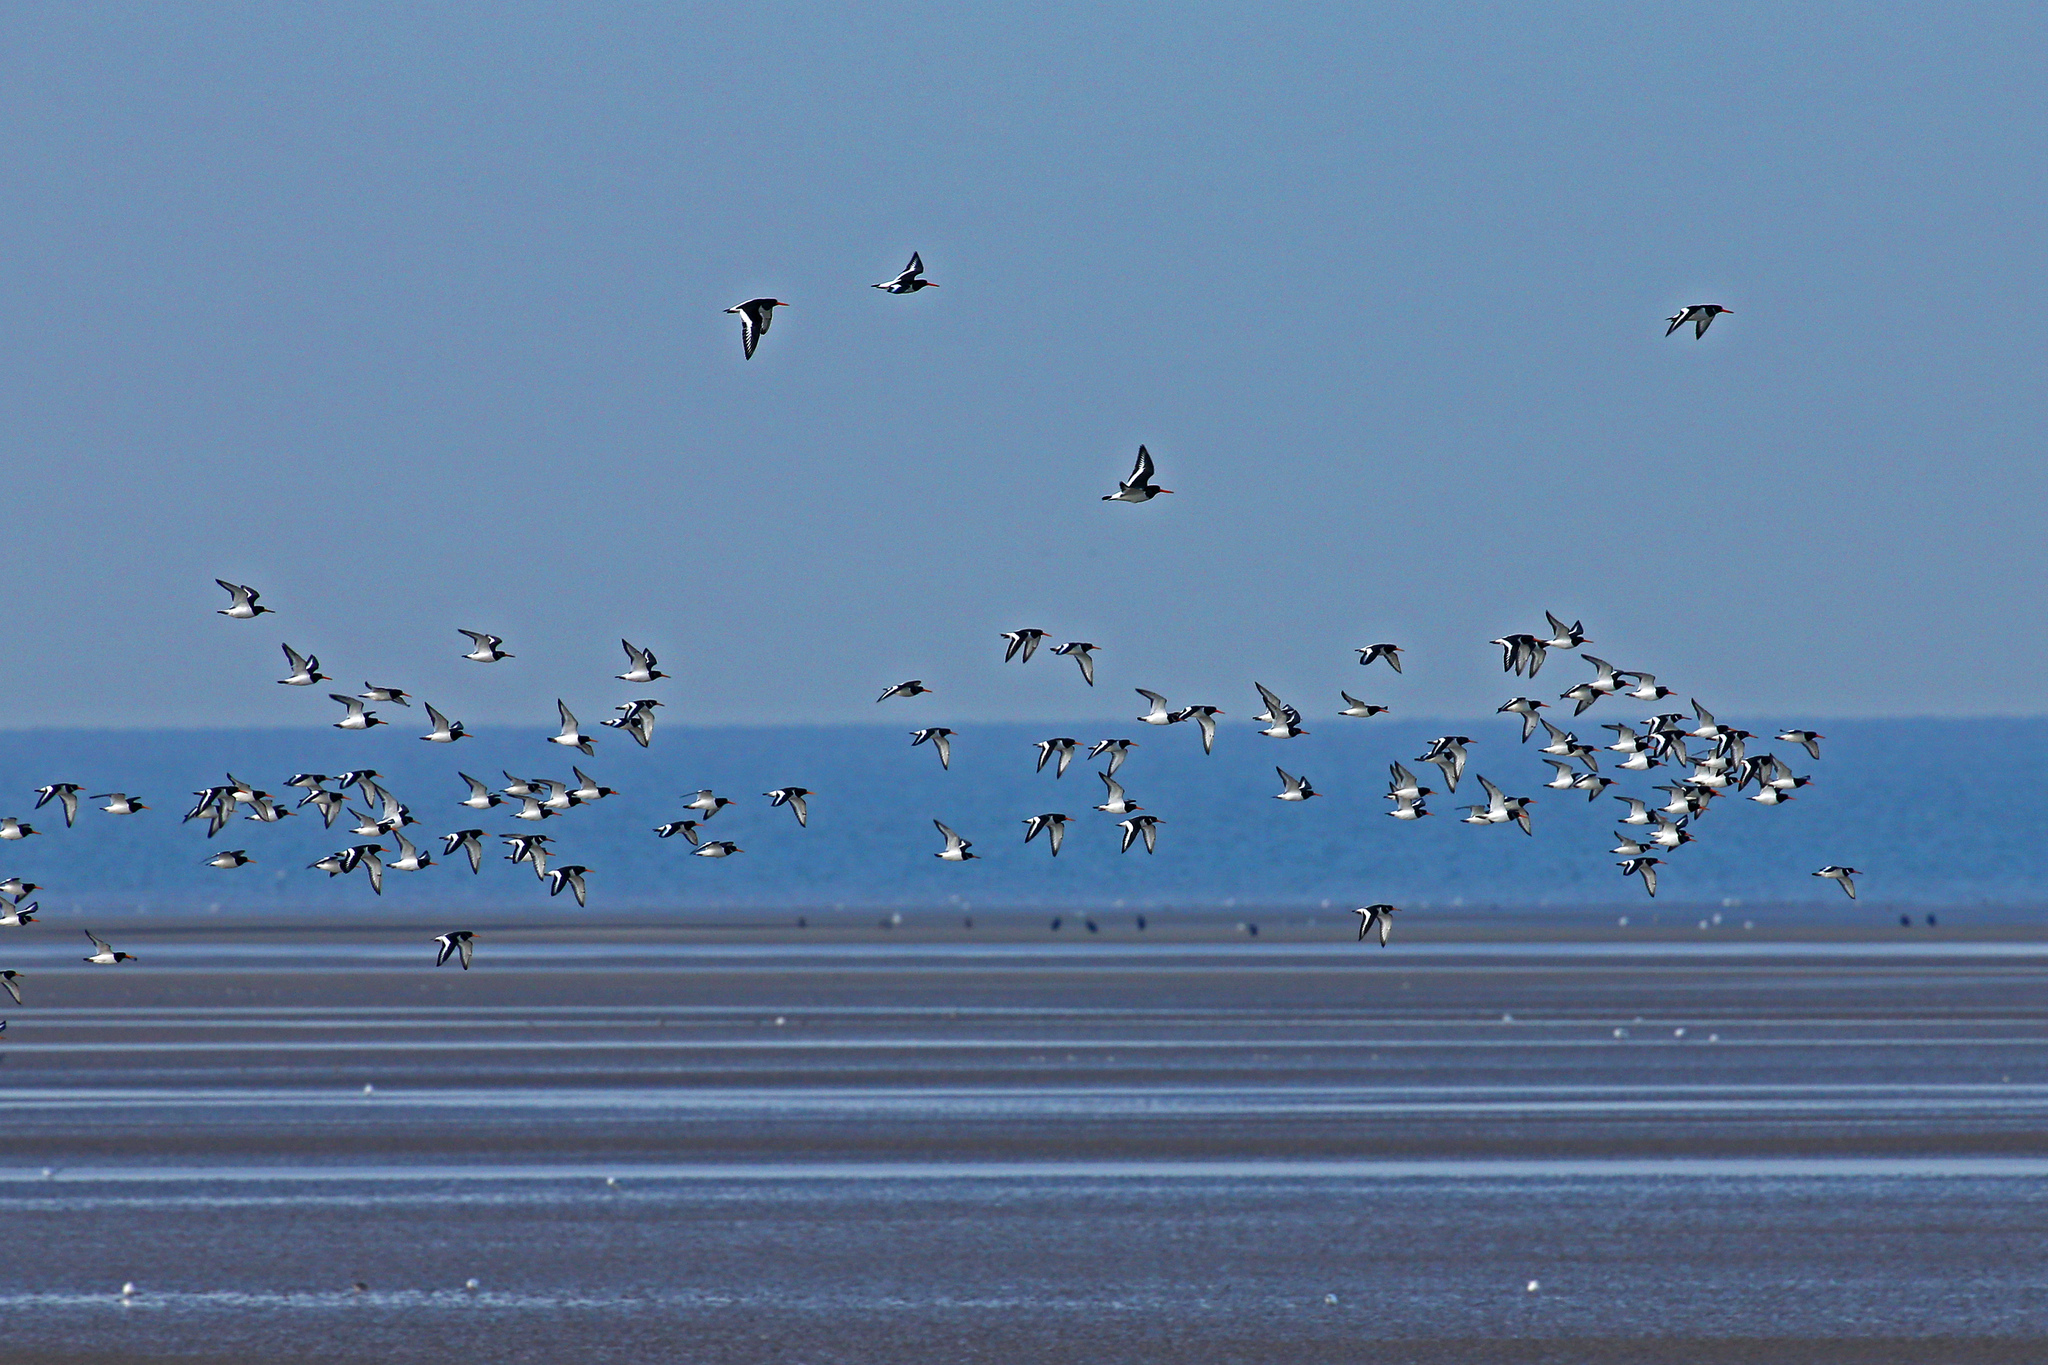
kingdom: Animalia
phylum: Chordata
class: Aves
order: Charadriiformes
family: Haematopodidae
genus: Haematopus
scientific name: Haematopus ostralegus
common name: Eurasian oystercatcher
